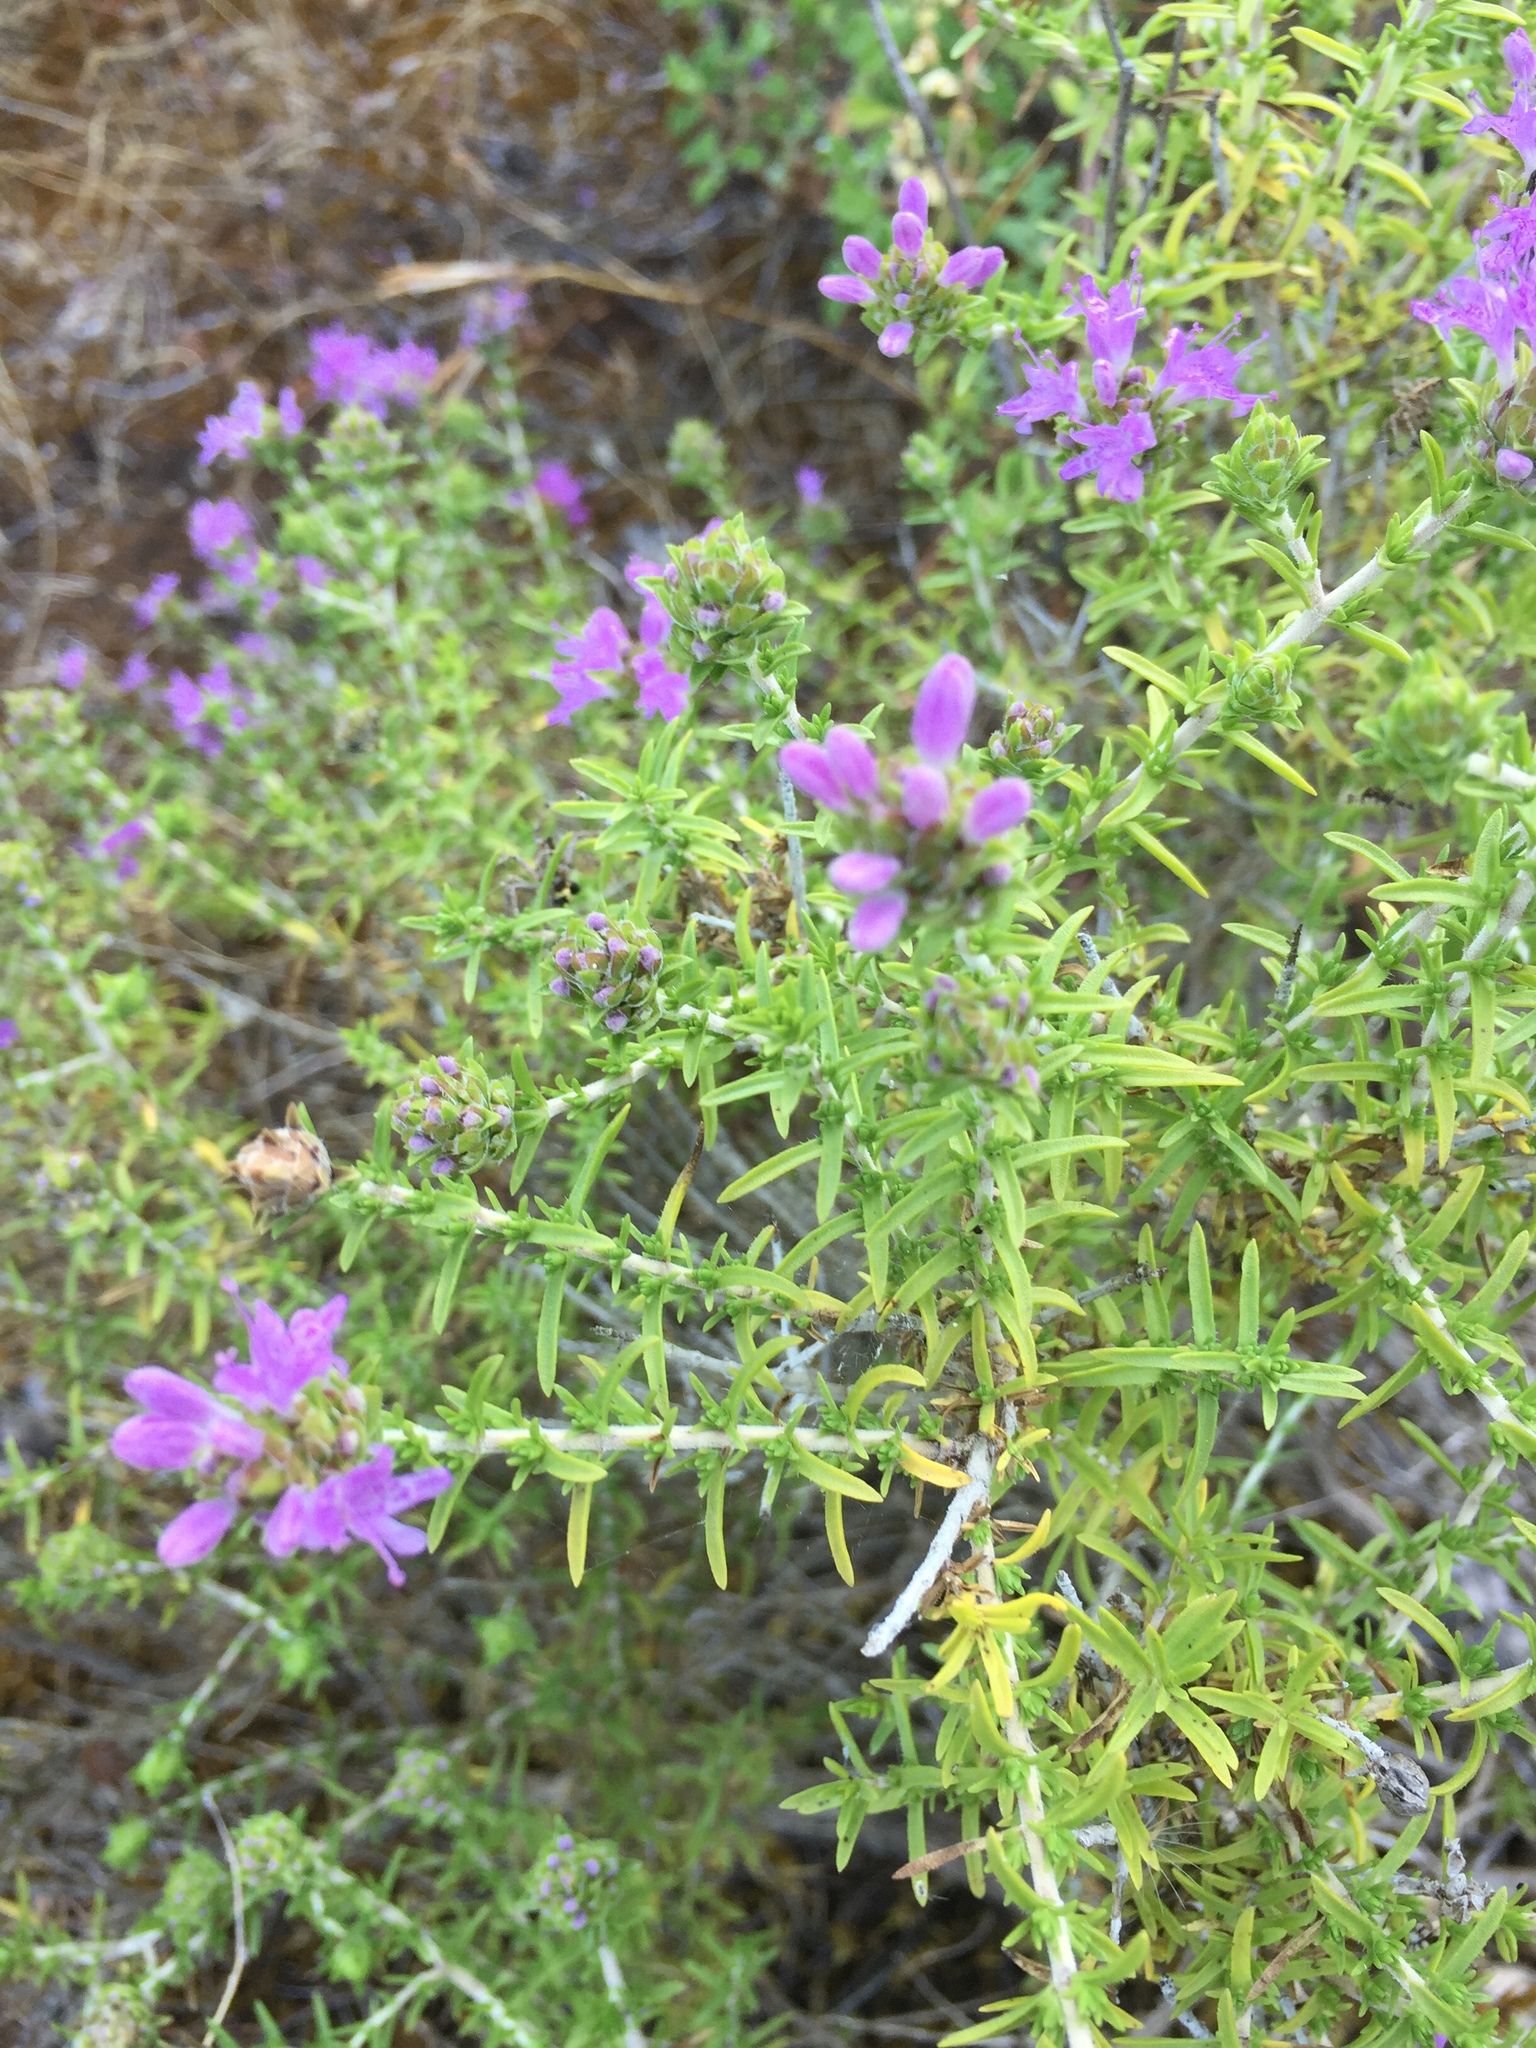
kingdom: Plantae
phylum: Tracheophyta
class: Magnoliopsida
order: Lamiales
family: Lamiaceae
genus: Thymbra
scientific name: Thymbra capitata
